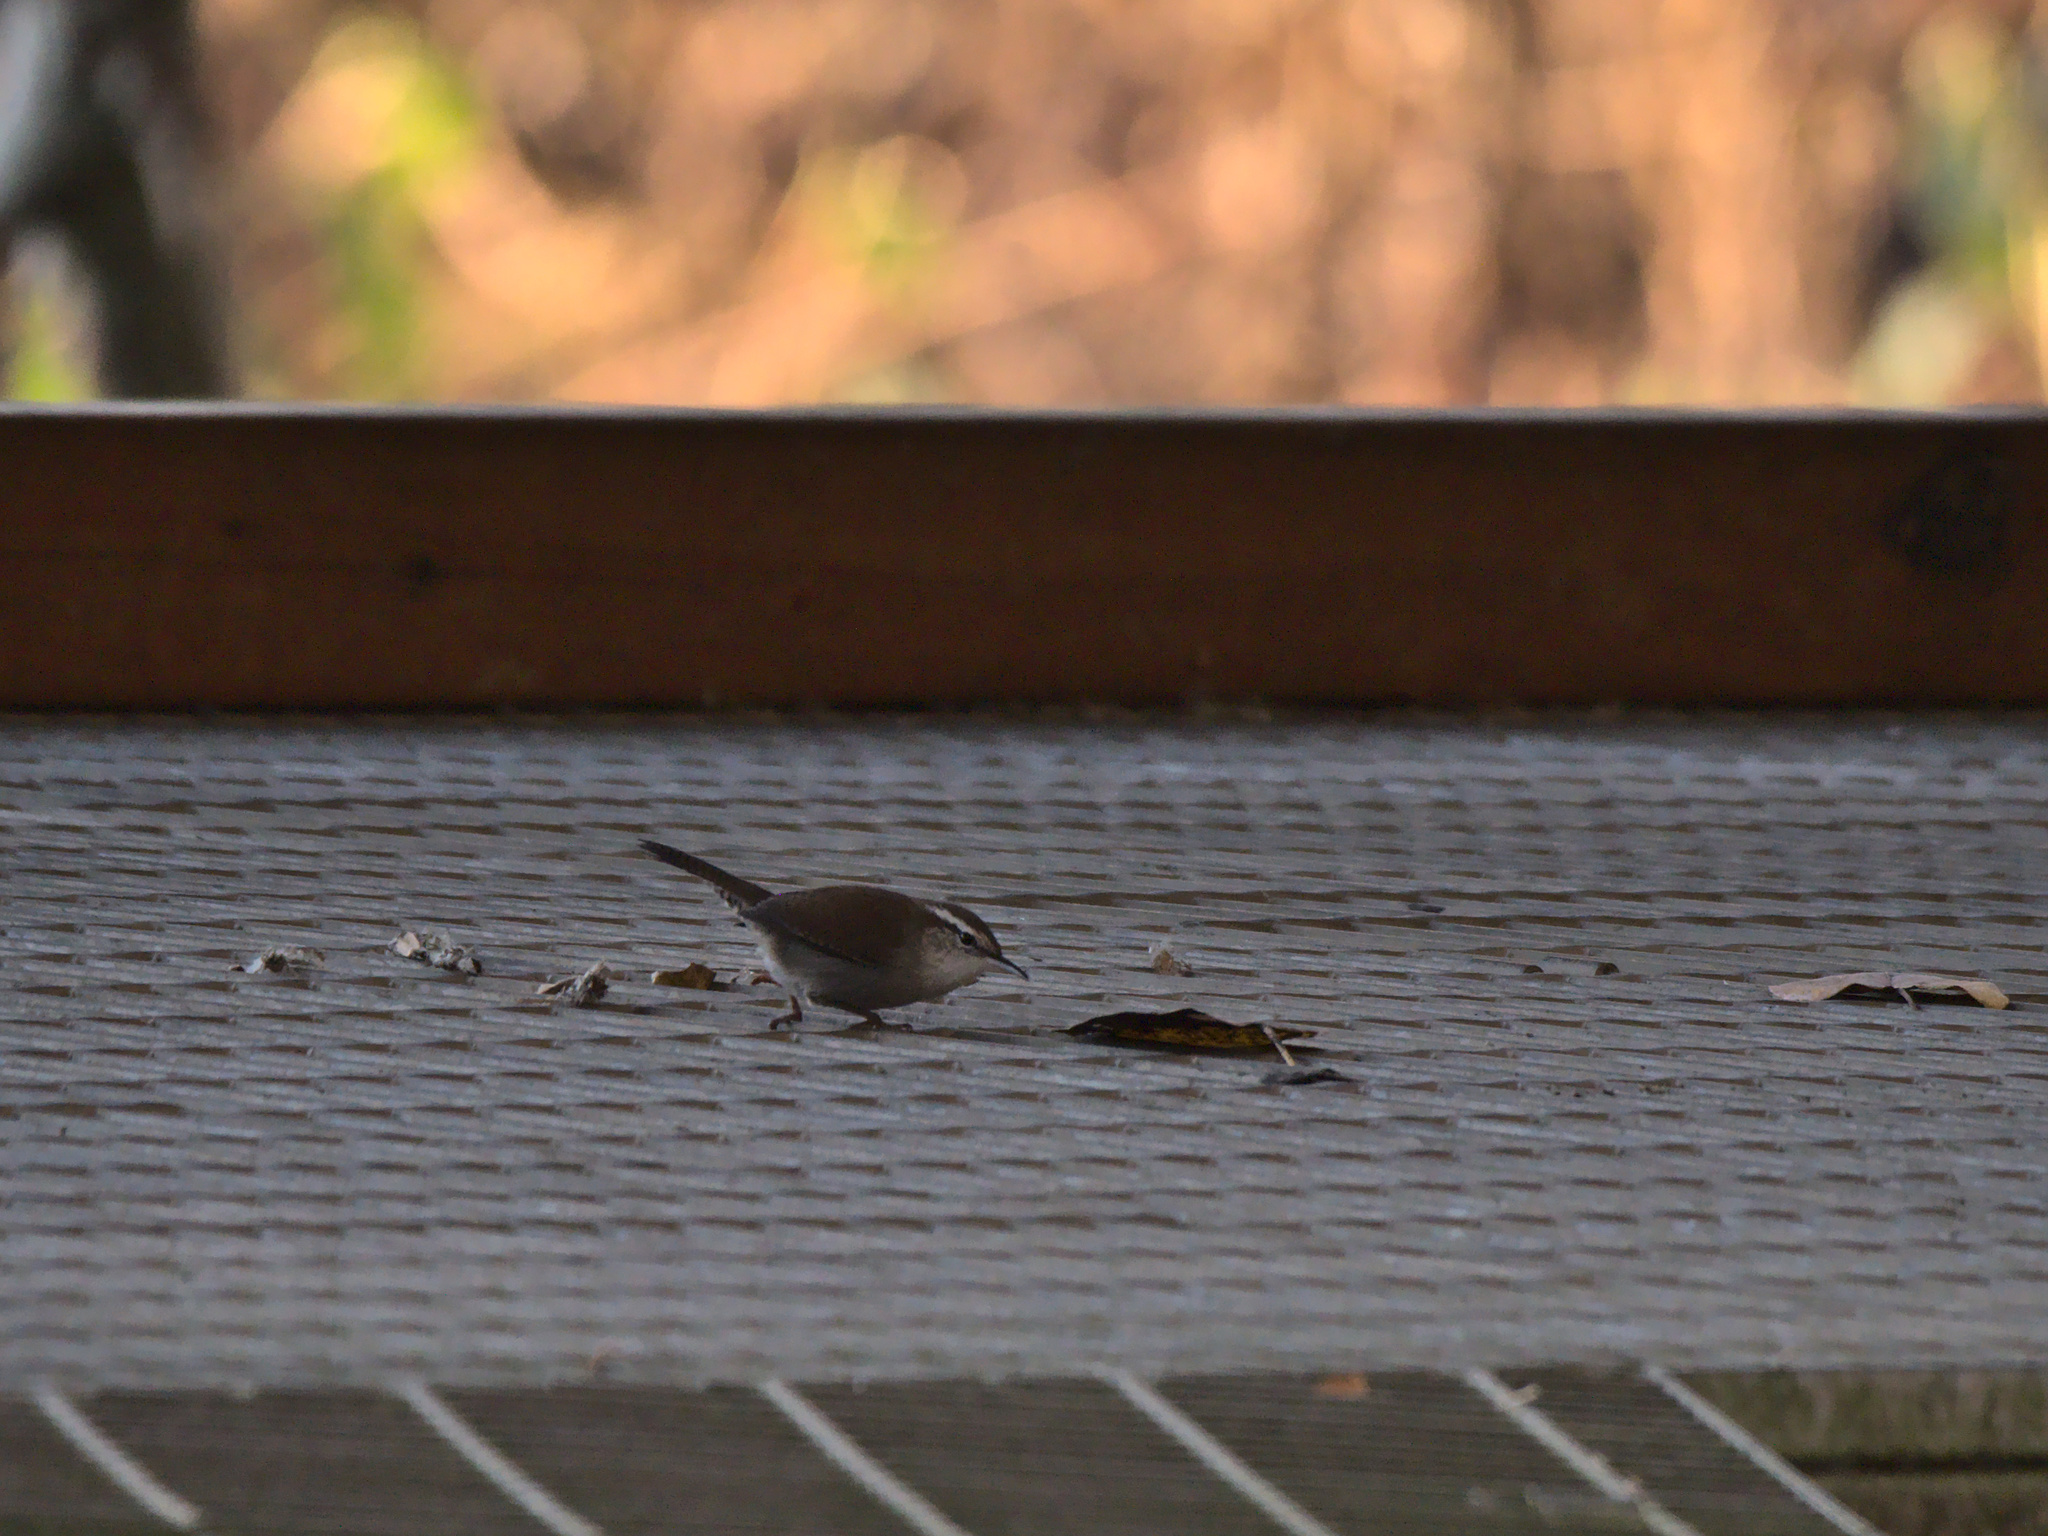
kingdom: Animalia
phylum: Chordata
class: Aves
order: Passeriformes
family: Troglodytidae
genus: Thryomanes
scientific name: Thryomanes bewickii
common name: Bewick's wren
